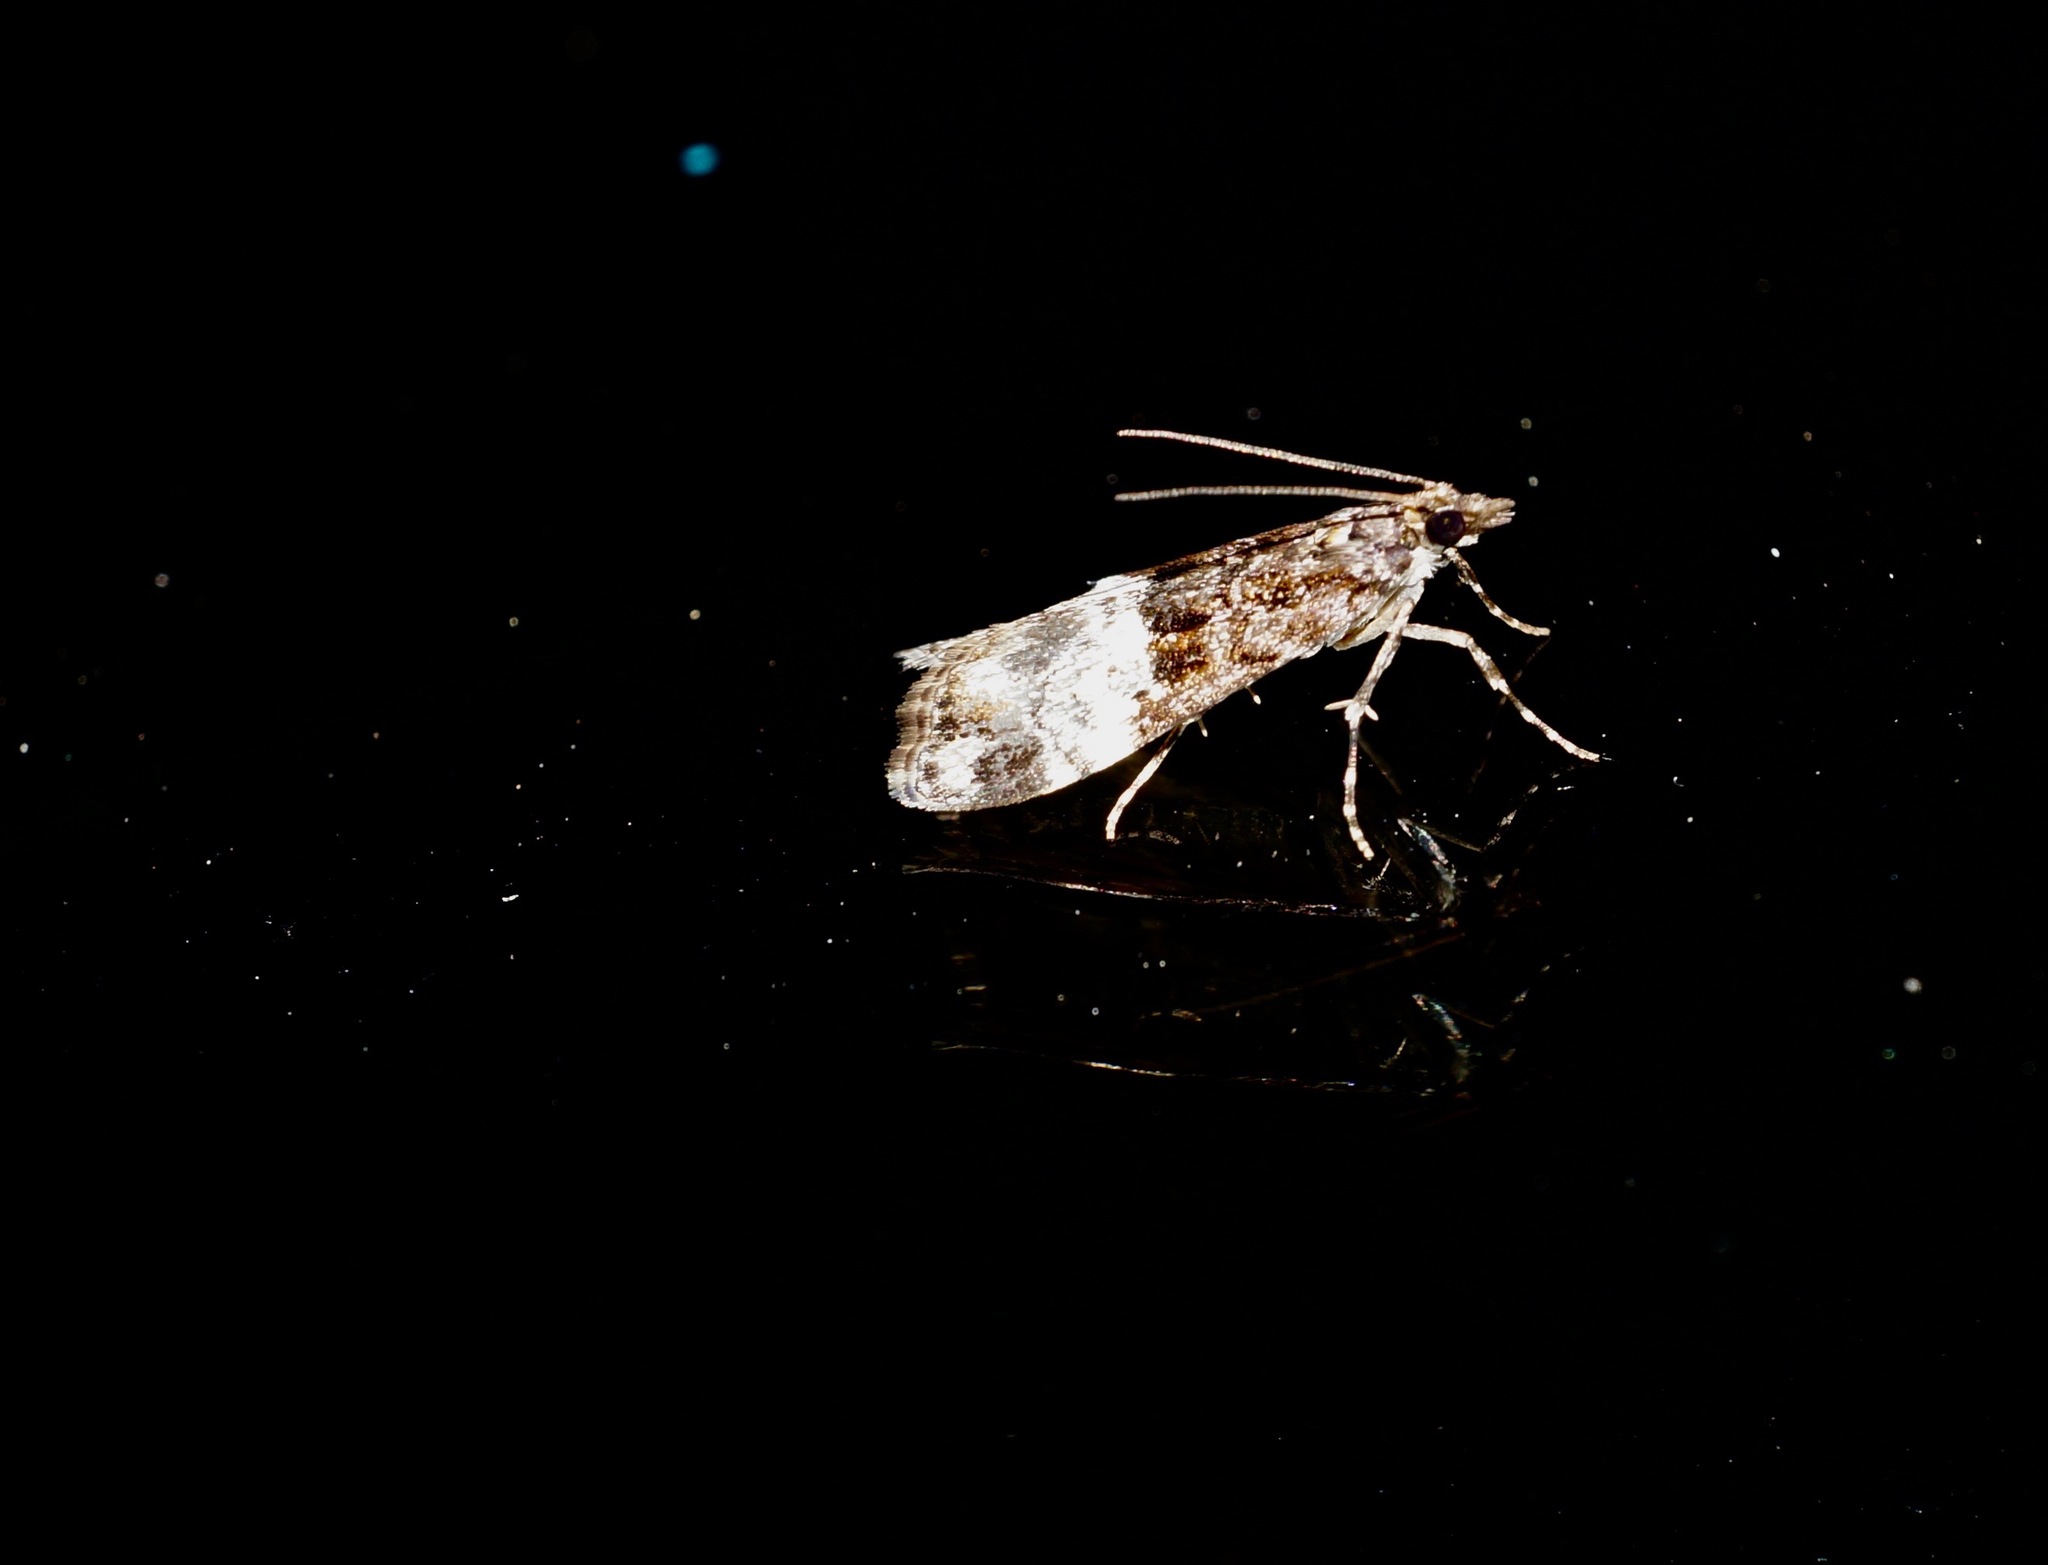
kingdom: Animalia
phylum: Arthropoda
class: Insecta
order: Lepidoptera
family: Crambidae
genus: Scoparia
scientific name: Scoparia minusculalis
